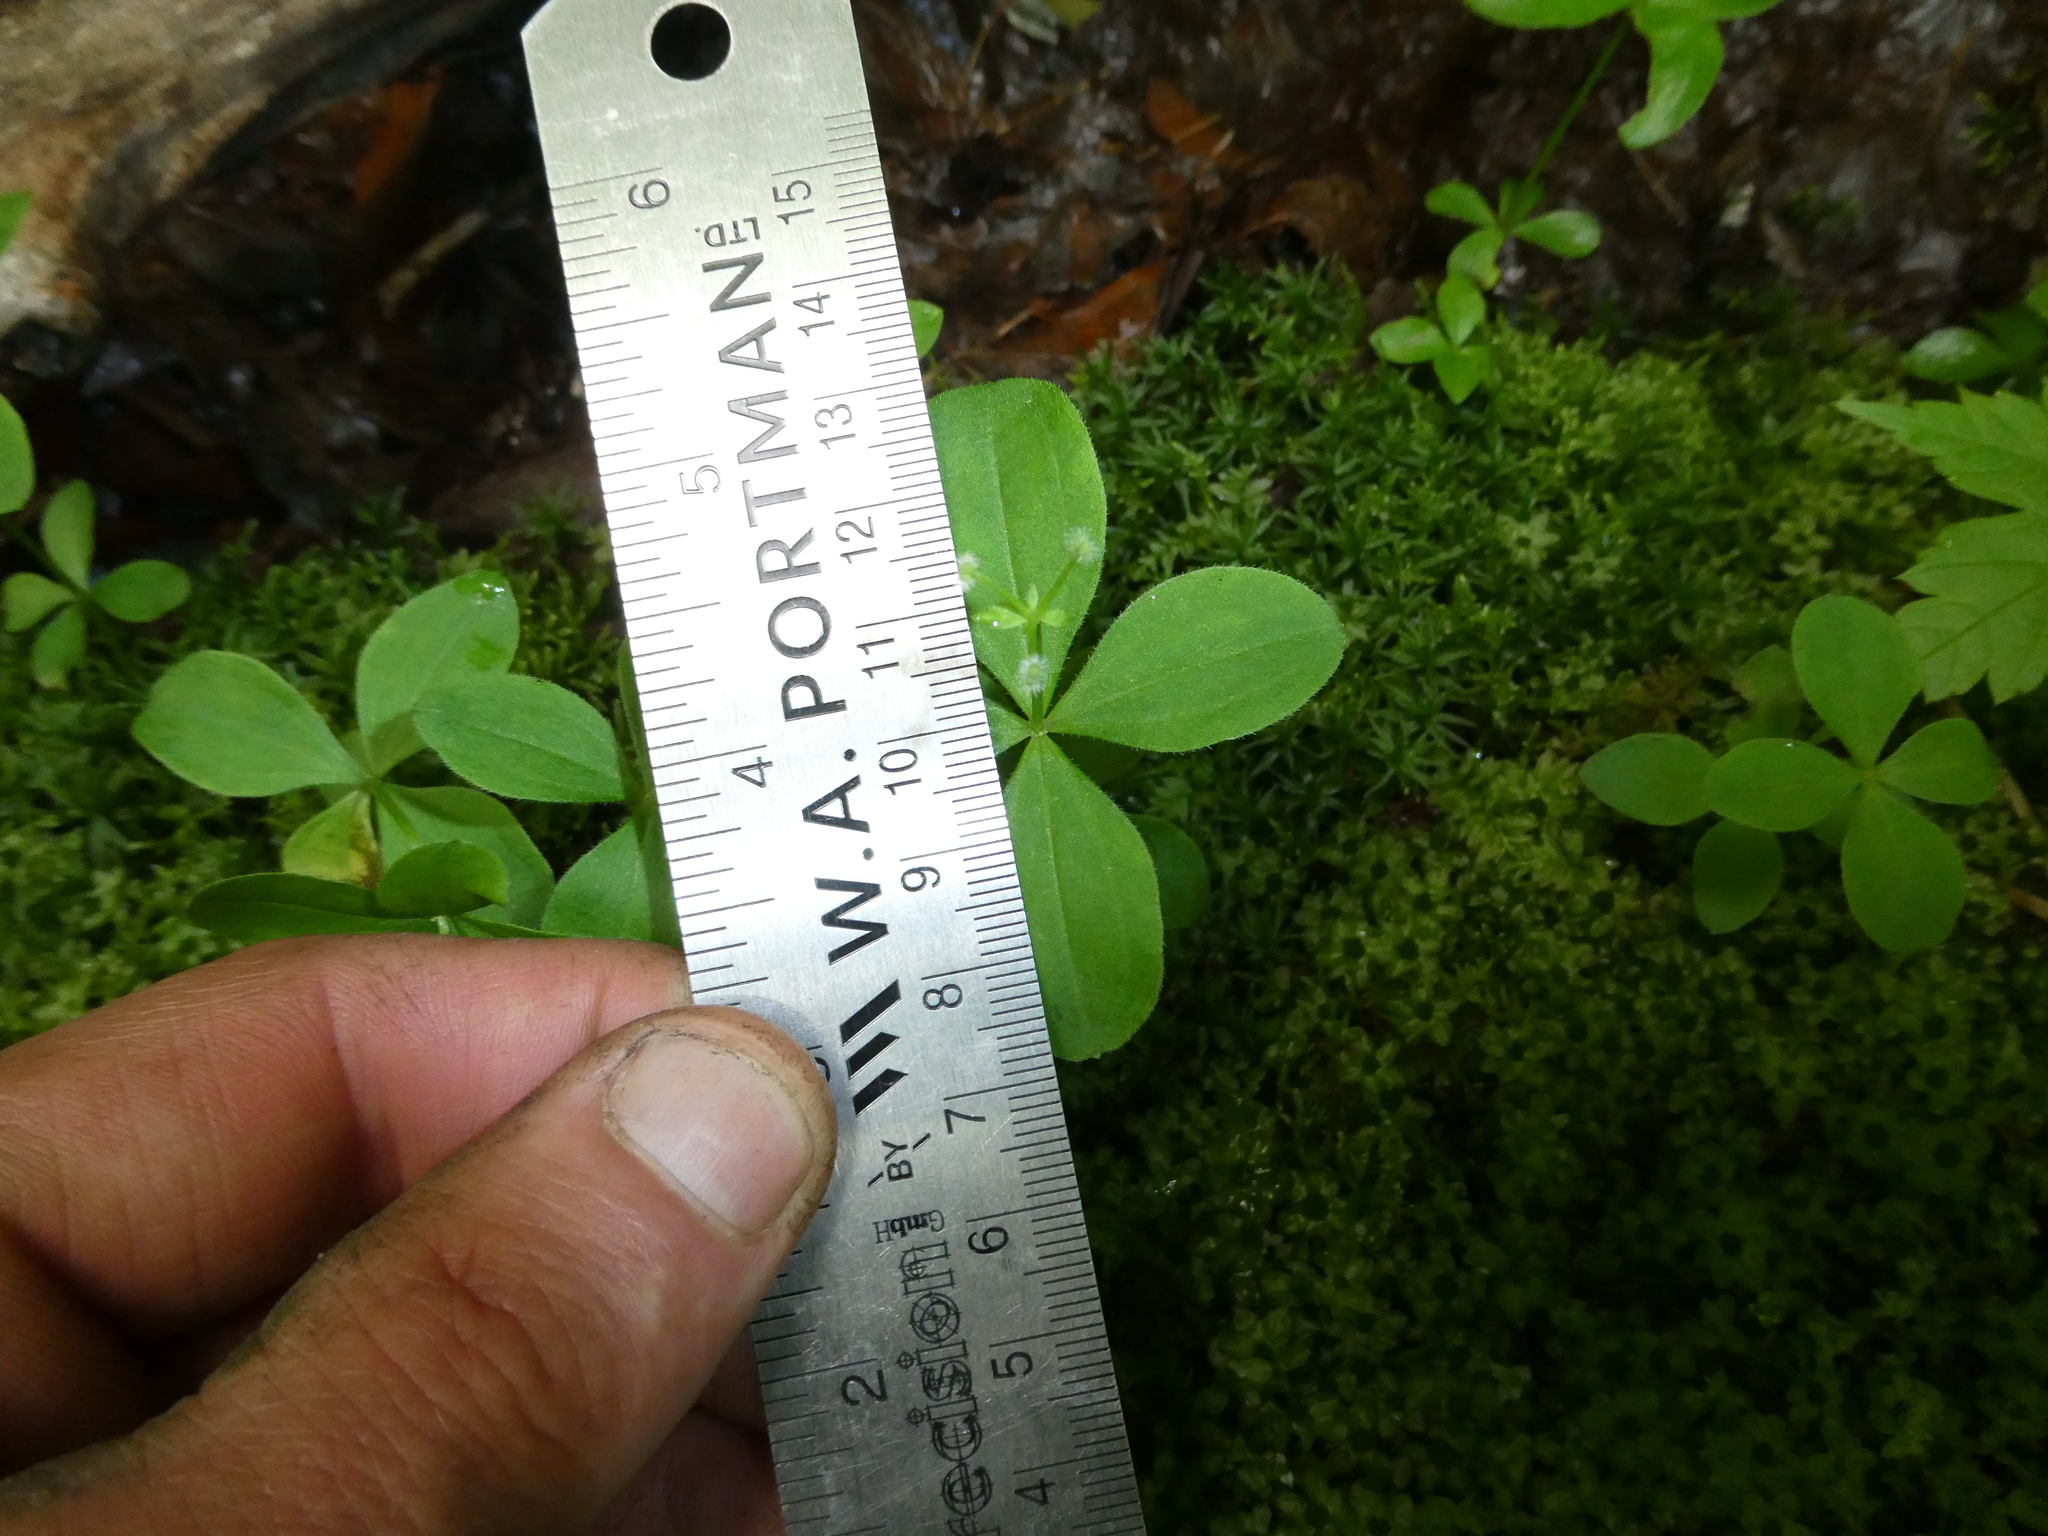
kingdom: Plantae
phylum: Tracheophyta
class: Magnoliopsida
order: Gentianales
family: Rubiaceae
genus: Galium
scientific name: Galium kamtschaticum
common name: Boreal bedstraw
